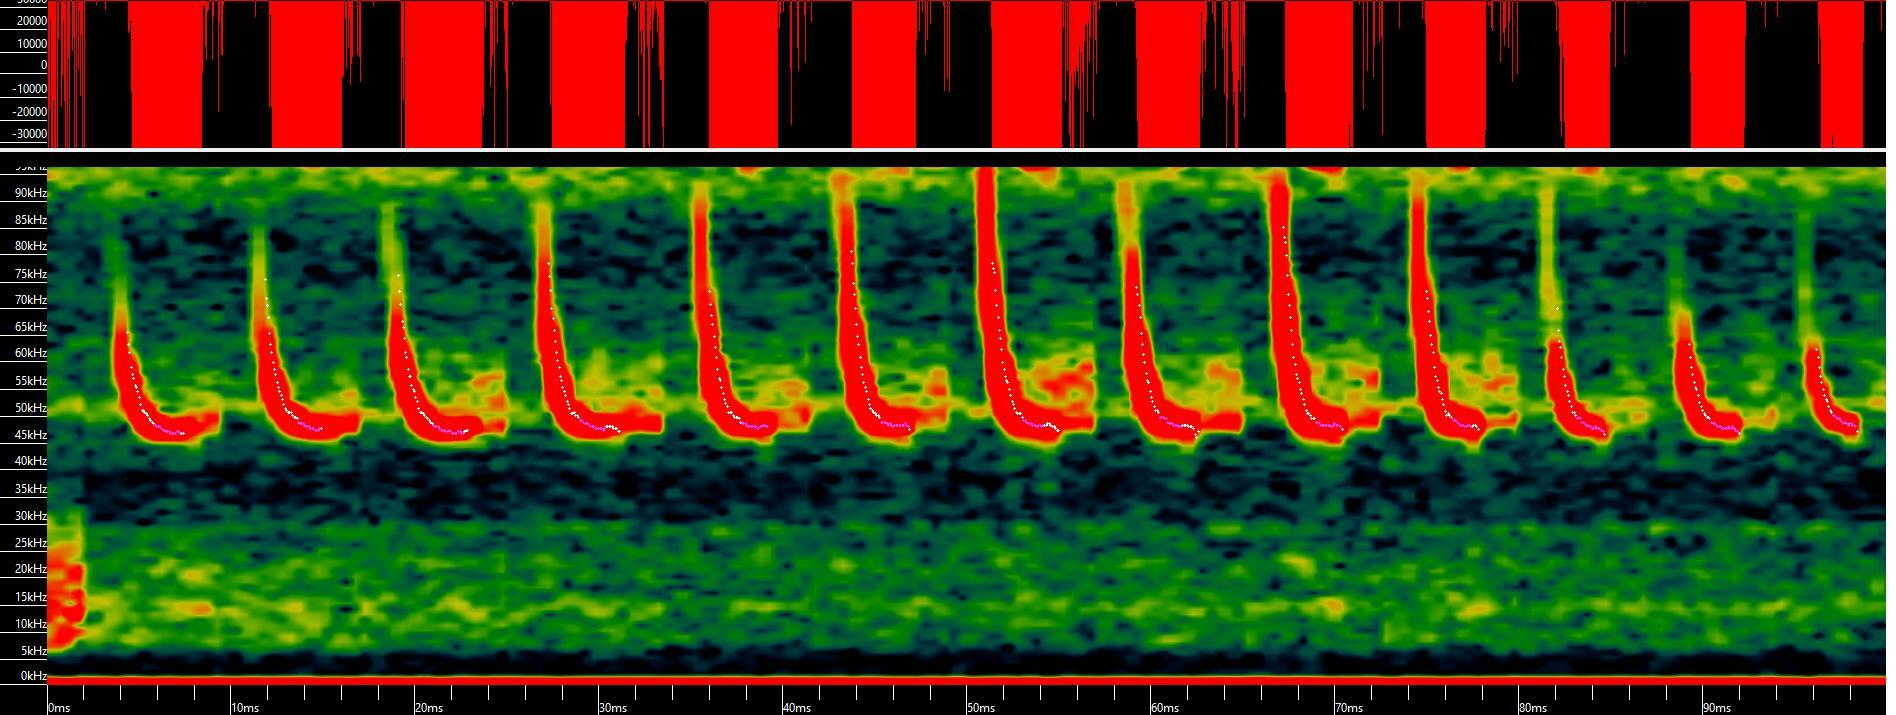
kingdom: Animalia
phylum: Chordata
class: Mammalia
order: Chiroptera
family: Vespertilionidae
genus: Pipistrellus
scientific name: Pipistrellus pipistrellus
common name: Common pipistrelle
